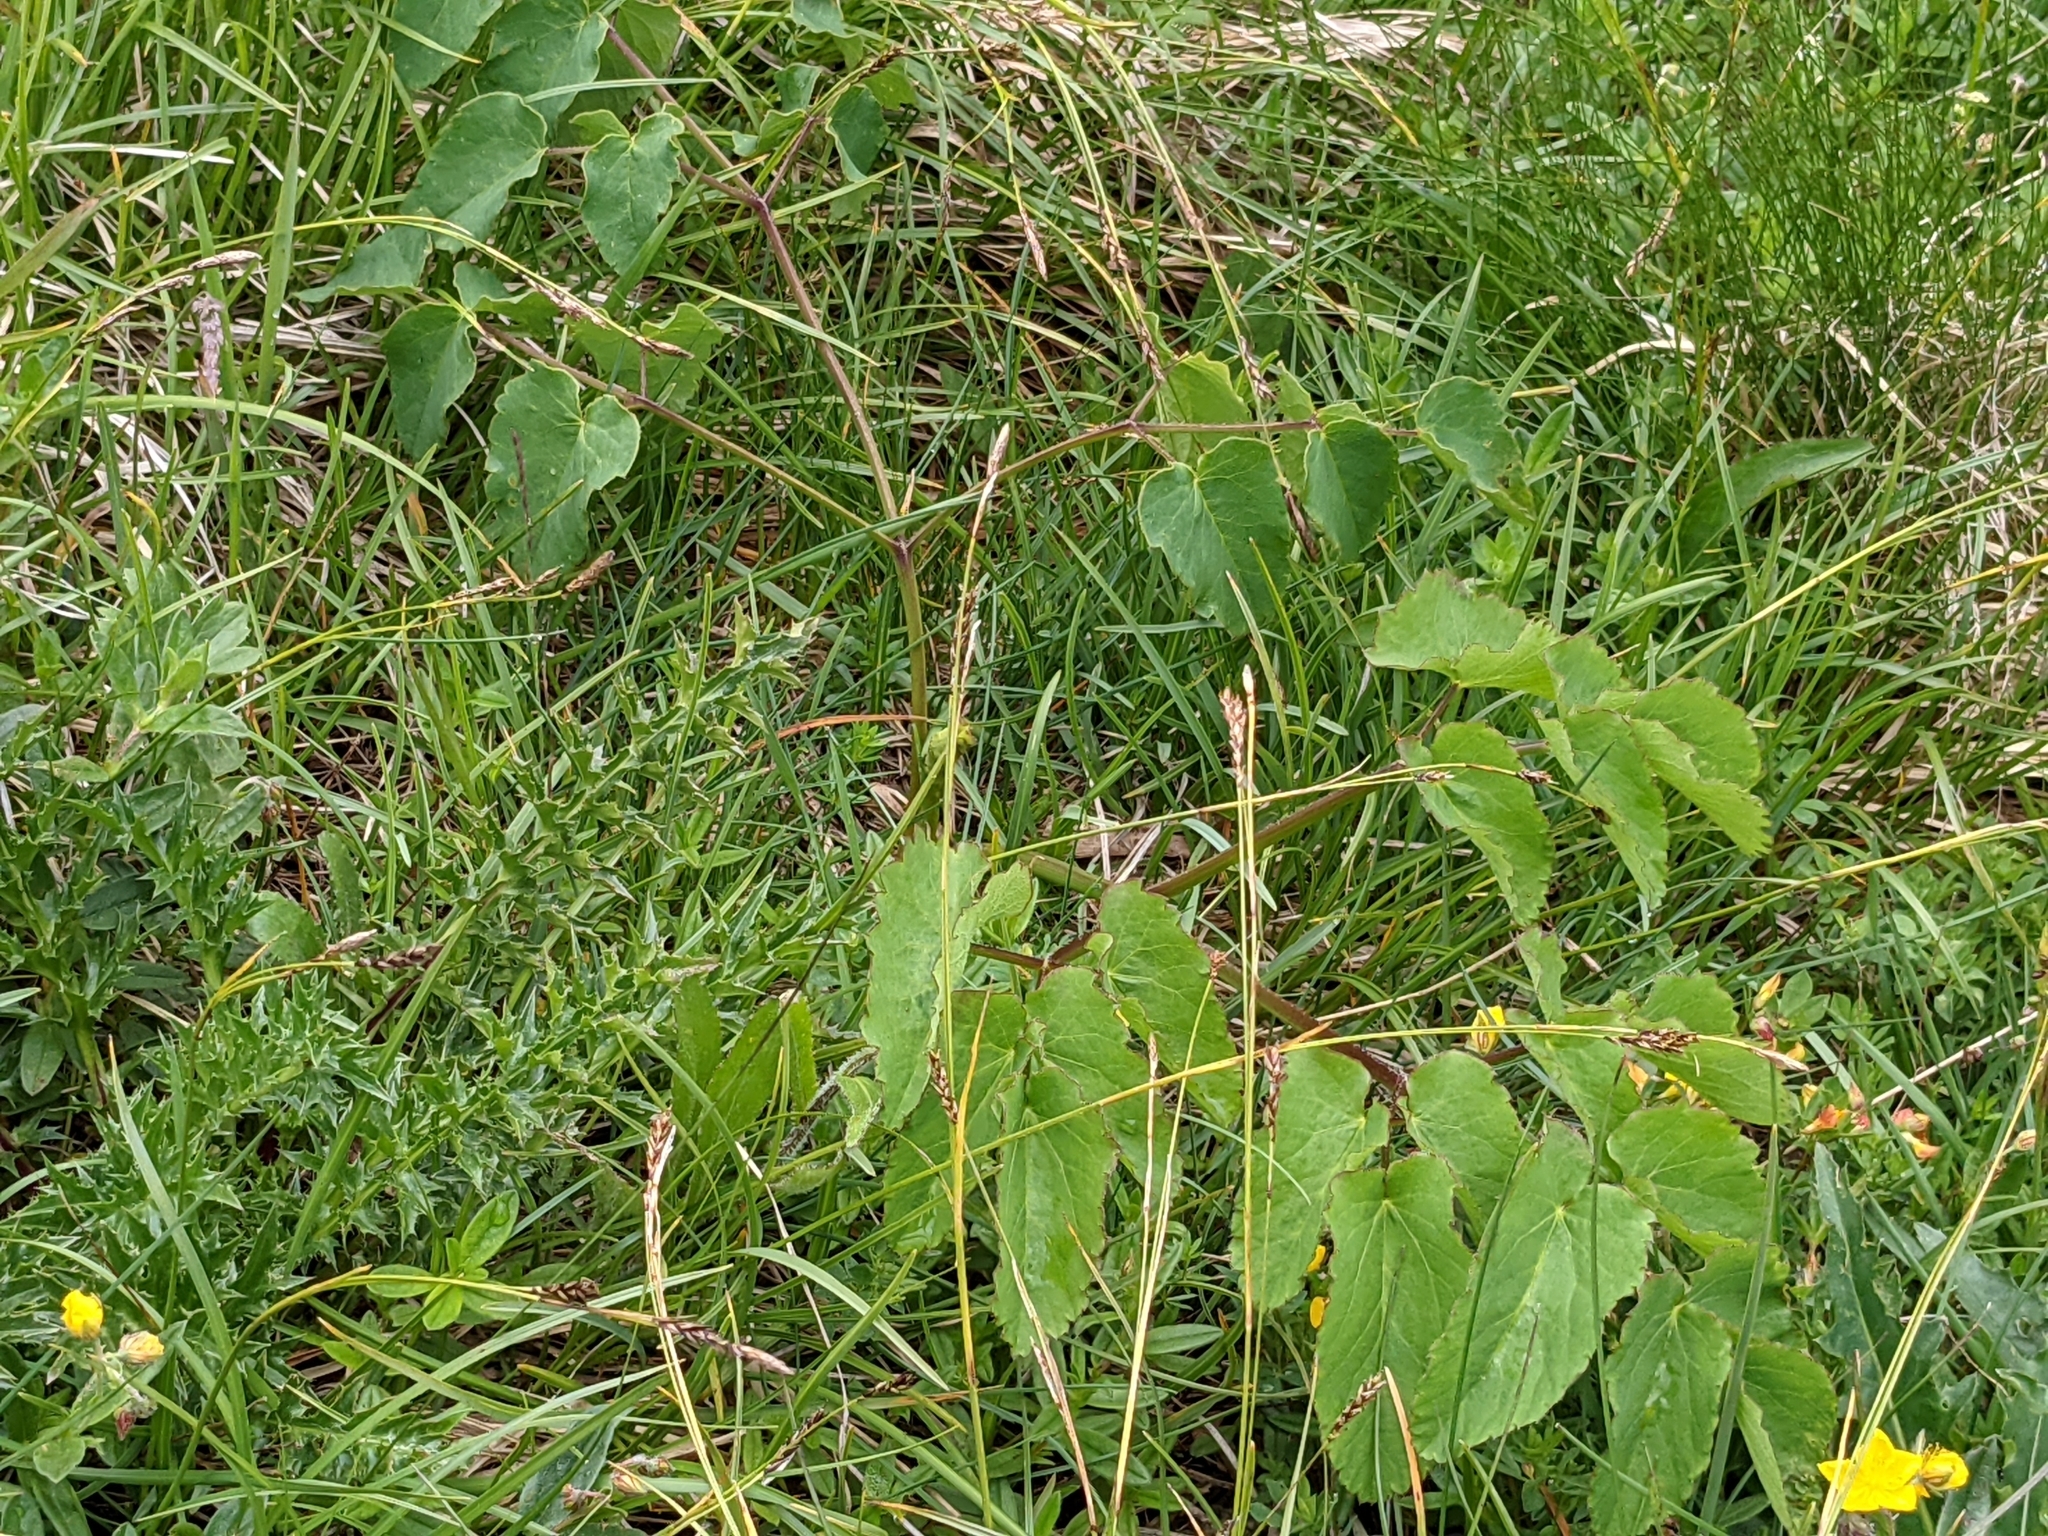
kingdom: Plantae
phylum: Tracheophyta
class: Magnoliopsida
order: Apiales
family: Apiaceae
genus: Laserpitium
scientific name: Laserpitium latifolium
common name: Broadleaf sermountain
